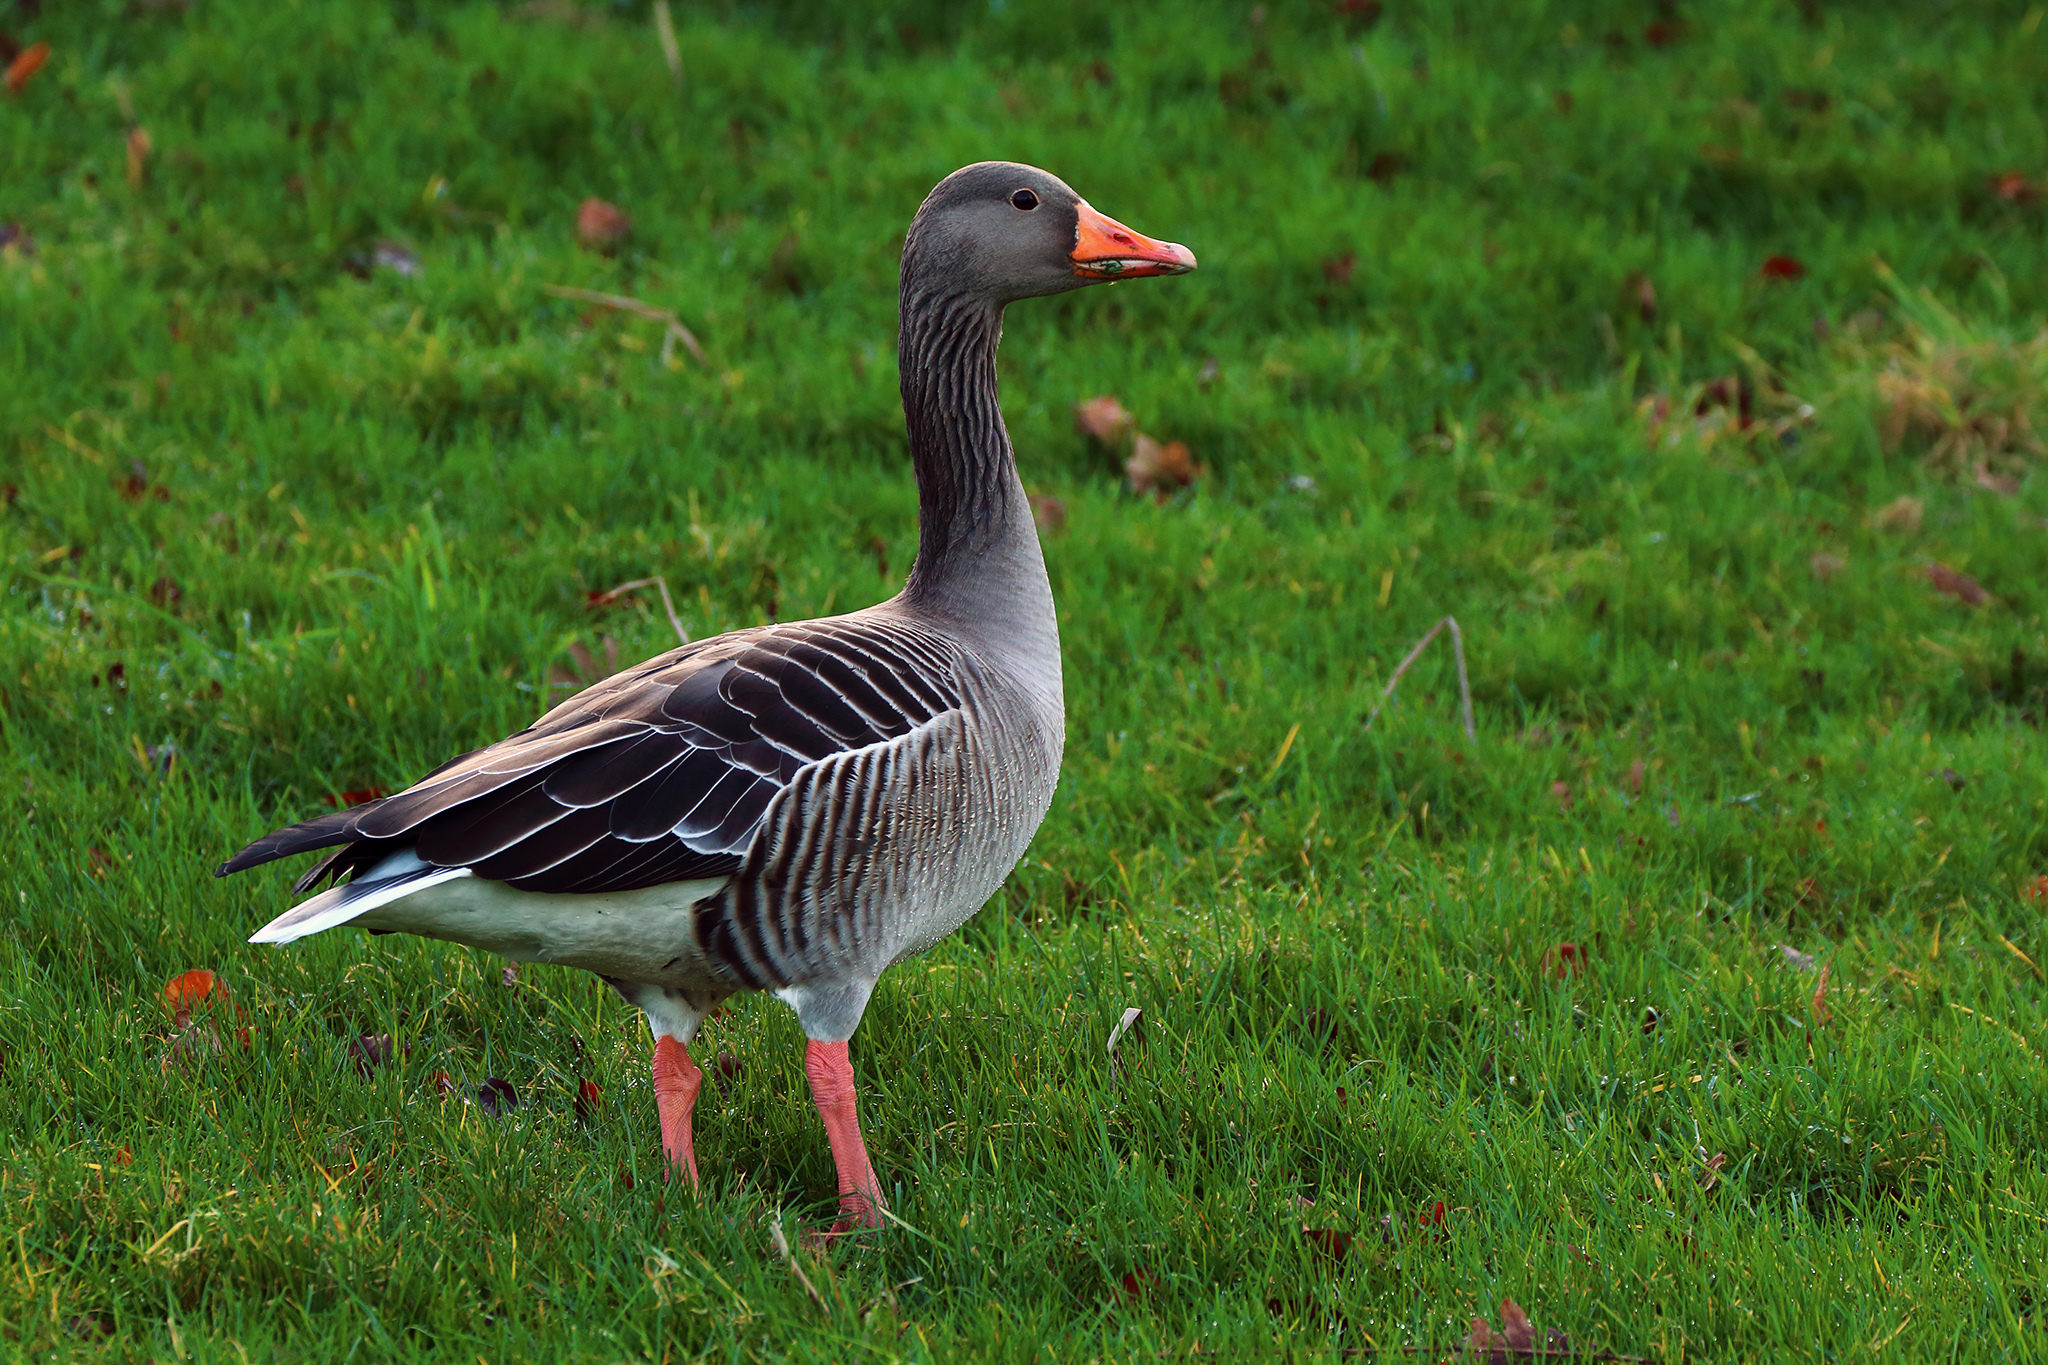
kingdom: Animalia
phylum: Chordata
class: Aves
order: Anseriformes
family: Anatidae
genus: Anser
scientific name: Anser anser
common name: Greylag goose
